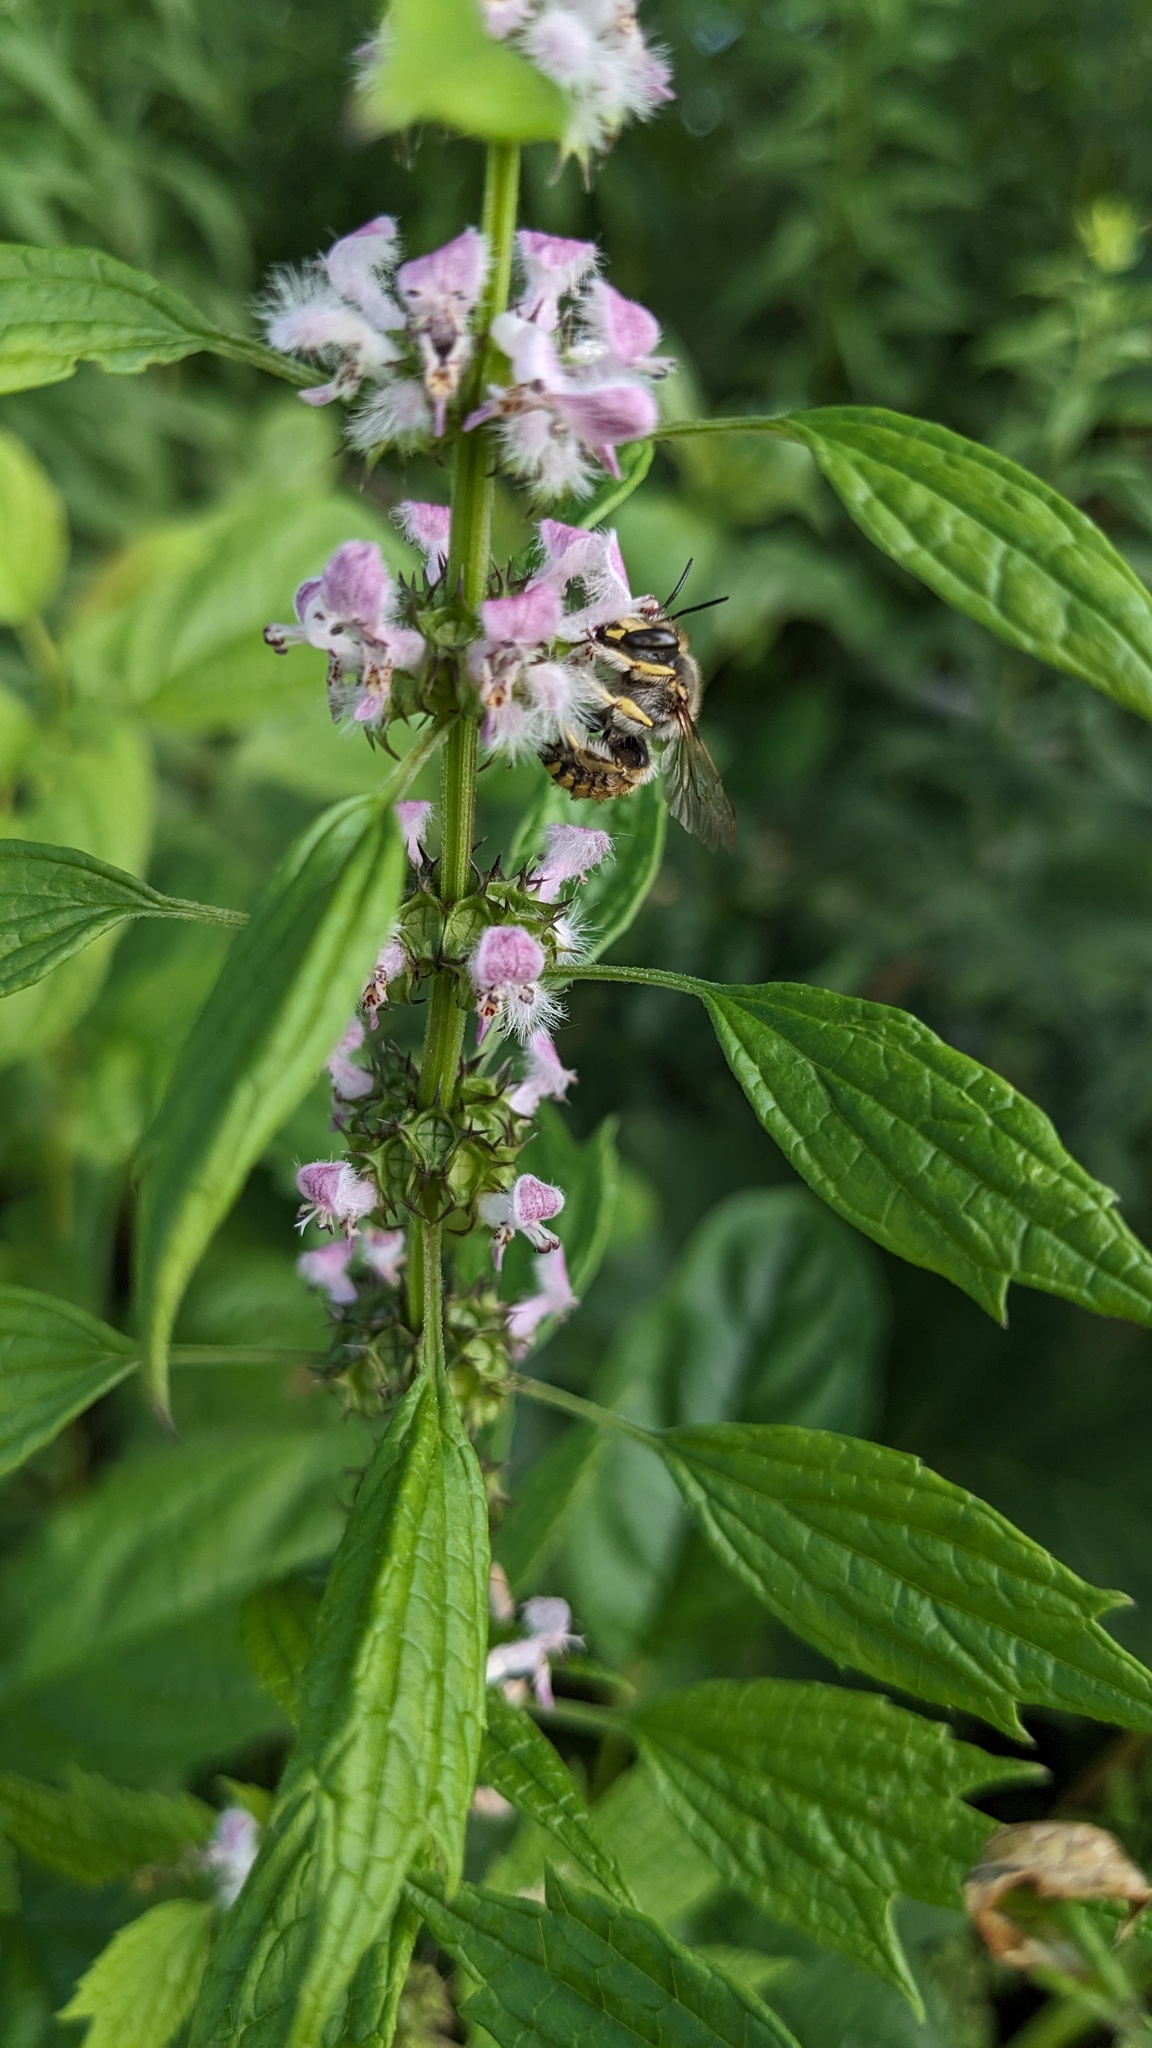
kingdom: Animalia
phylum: Arthropoda
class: Insecta
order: Hymenoptera
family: Megachilidae
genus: Anthidium
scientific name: Anthidium manicatum
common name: Wool carder bee
